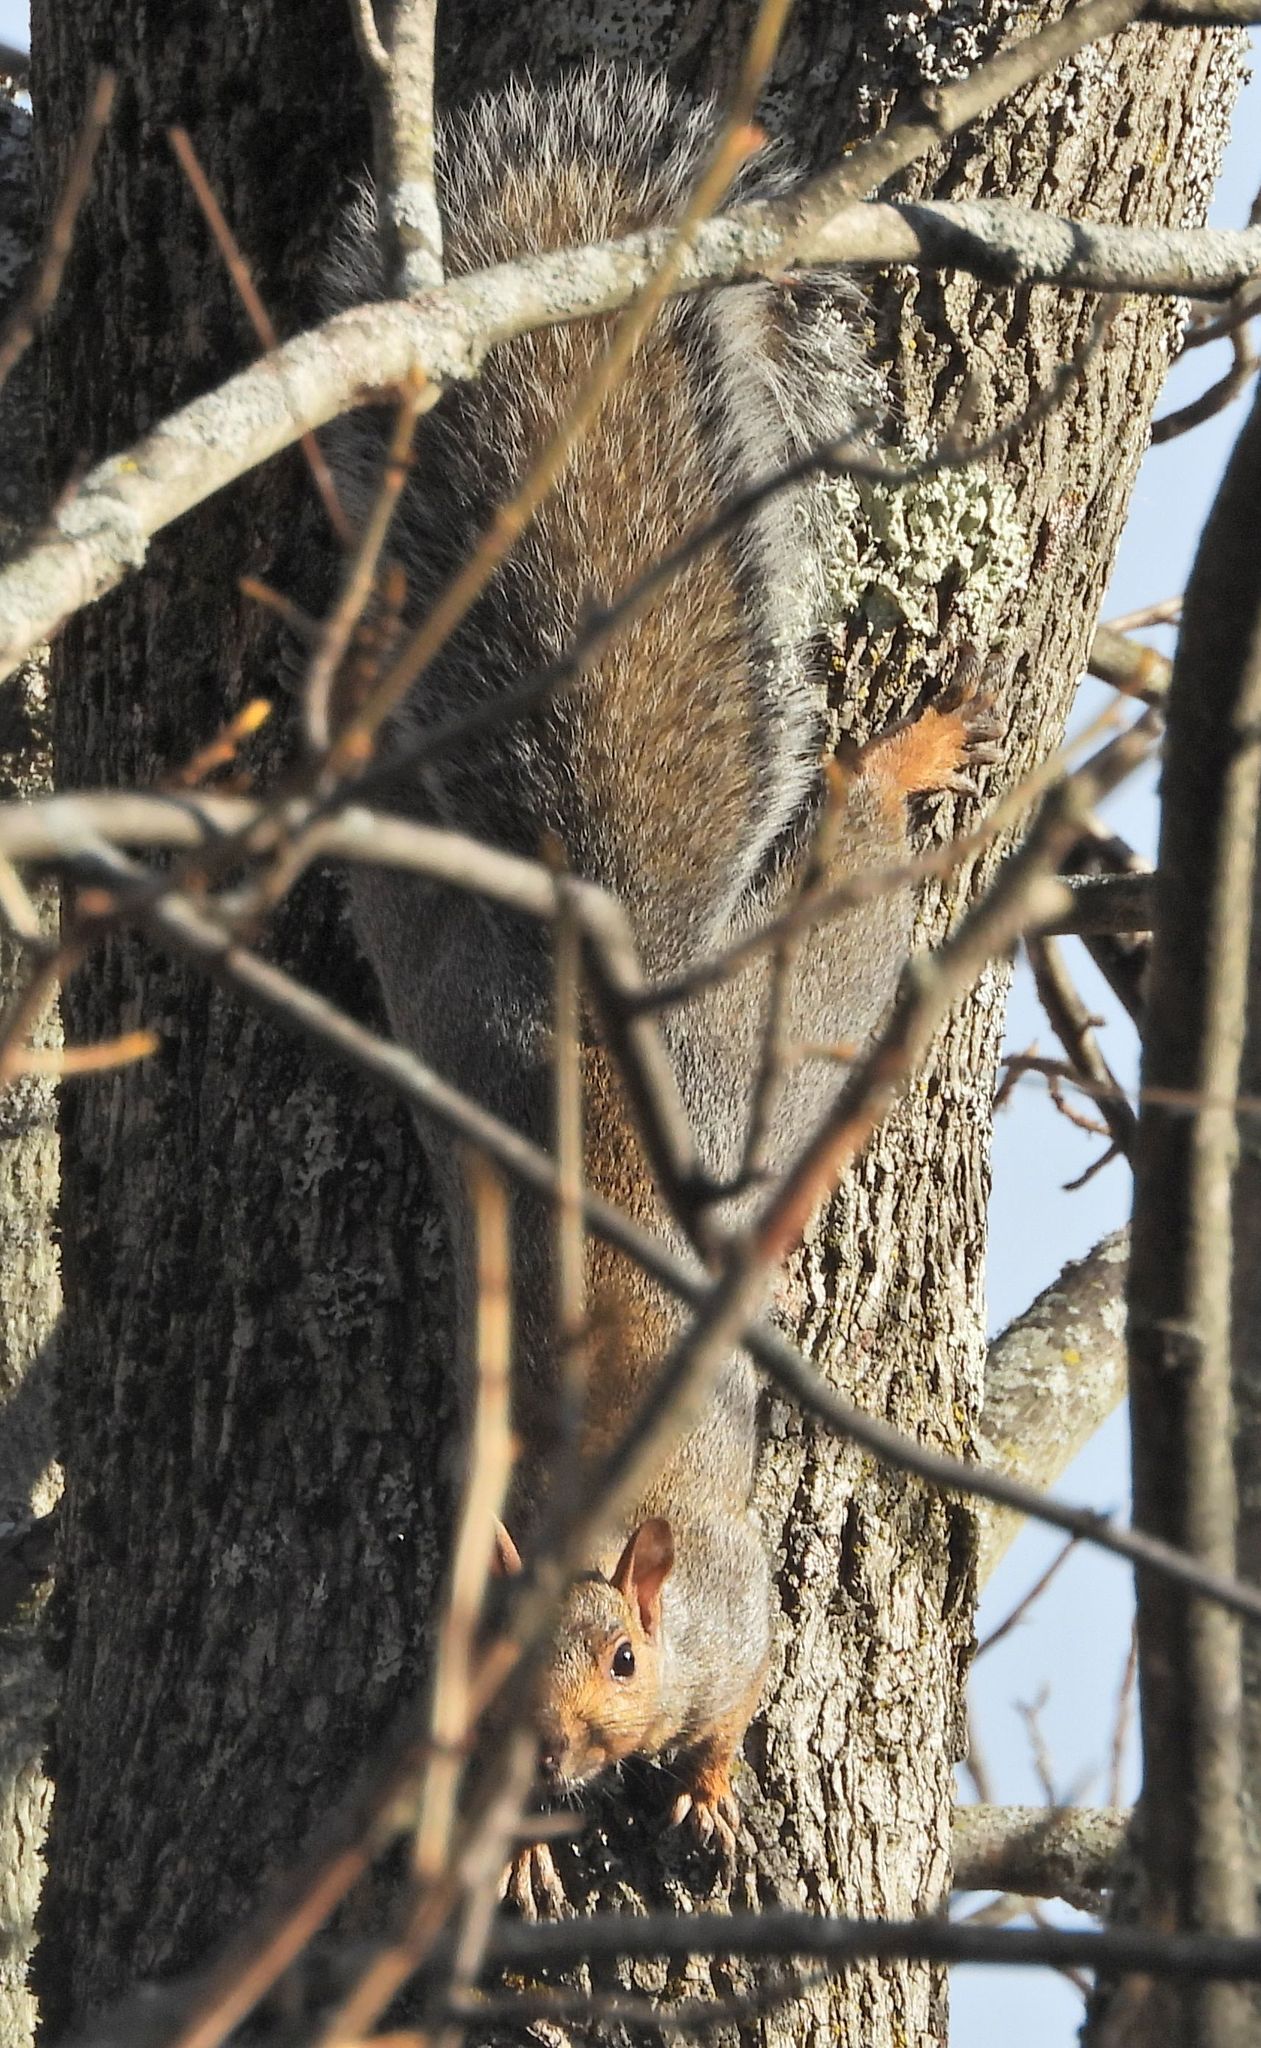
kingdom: Animalia
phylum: Chordata
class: Mammalia
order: Rodentia
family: Sciuridae
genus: Sciurus
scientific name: Sciurus carolinensis
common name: Eastern gray squirrel
